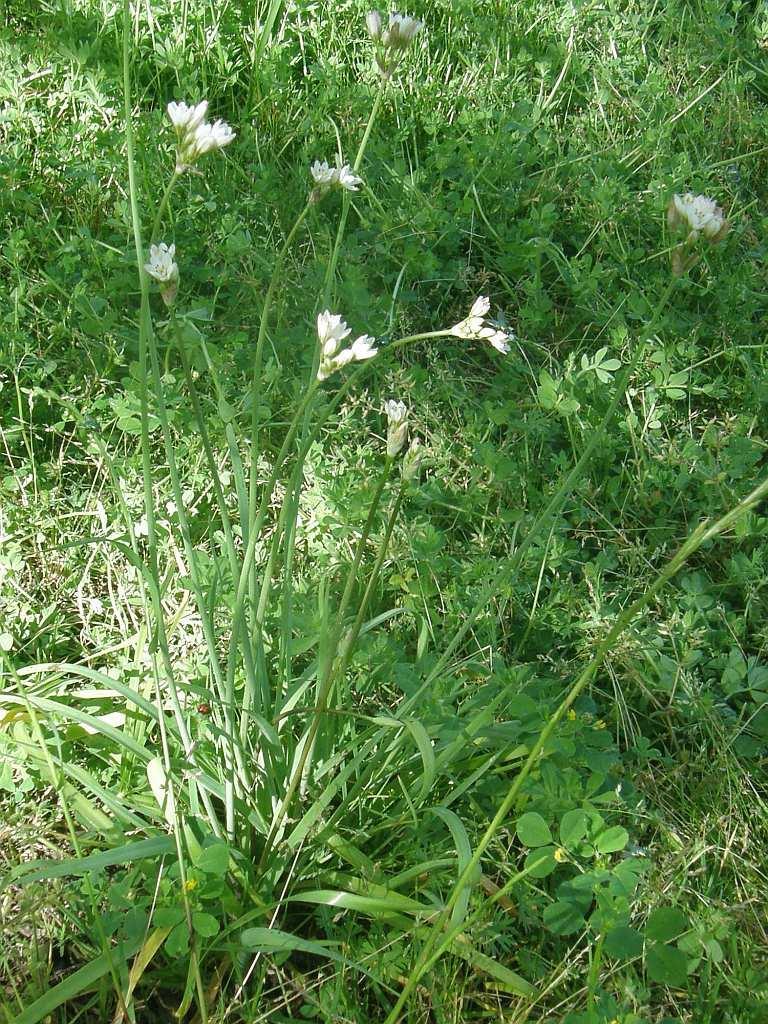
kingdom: Plantae
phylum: Tracheophyta
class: Liliopsida
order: Asparagales
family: Amaryllidaceae
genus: Nothoscordum
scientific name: Nothoscordum gracile
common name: Slender false garlic
